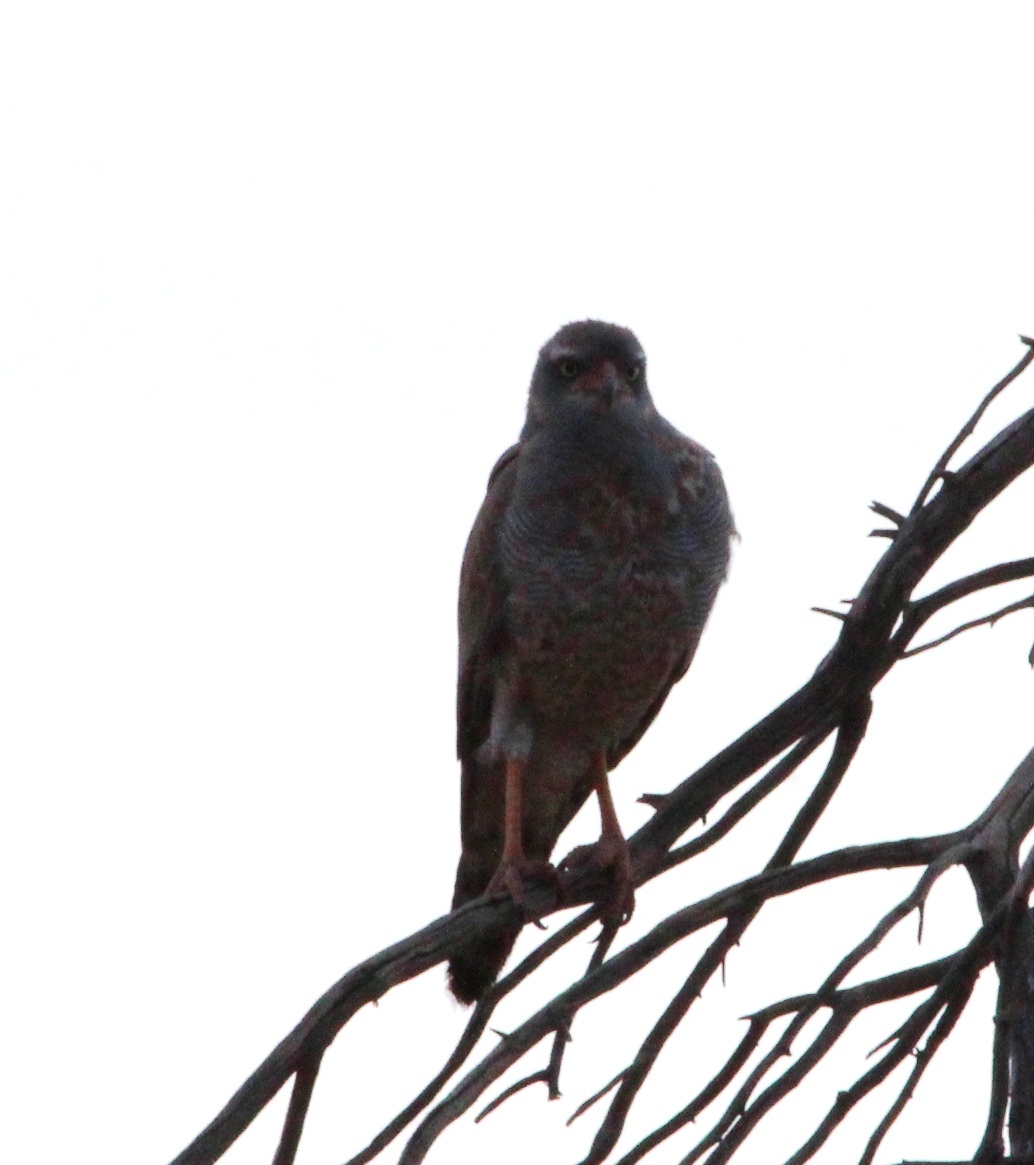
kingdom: Animalia
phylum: Chordata
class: Aves
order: Accipitriformes
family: Accipitridae
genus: Melierax
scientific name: Melierax canorus
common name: Pale chanting-goshawk
